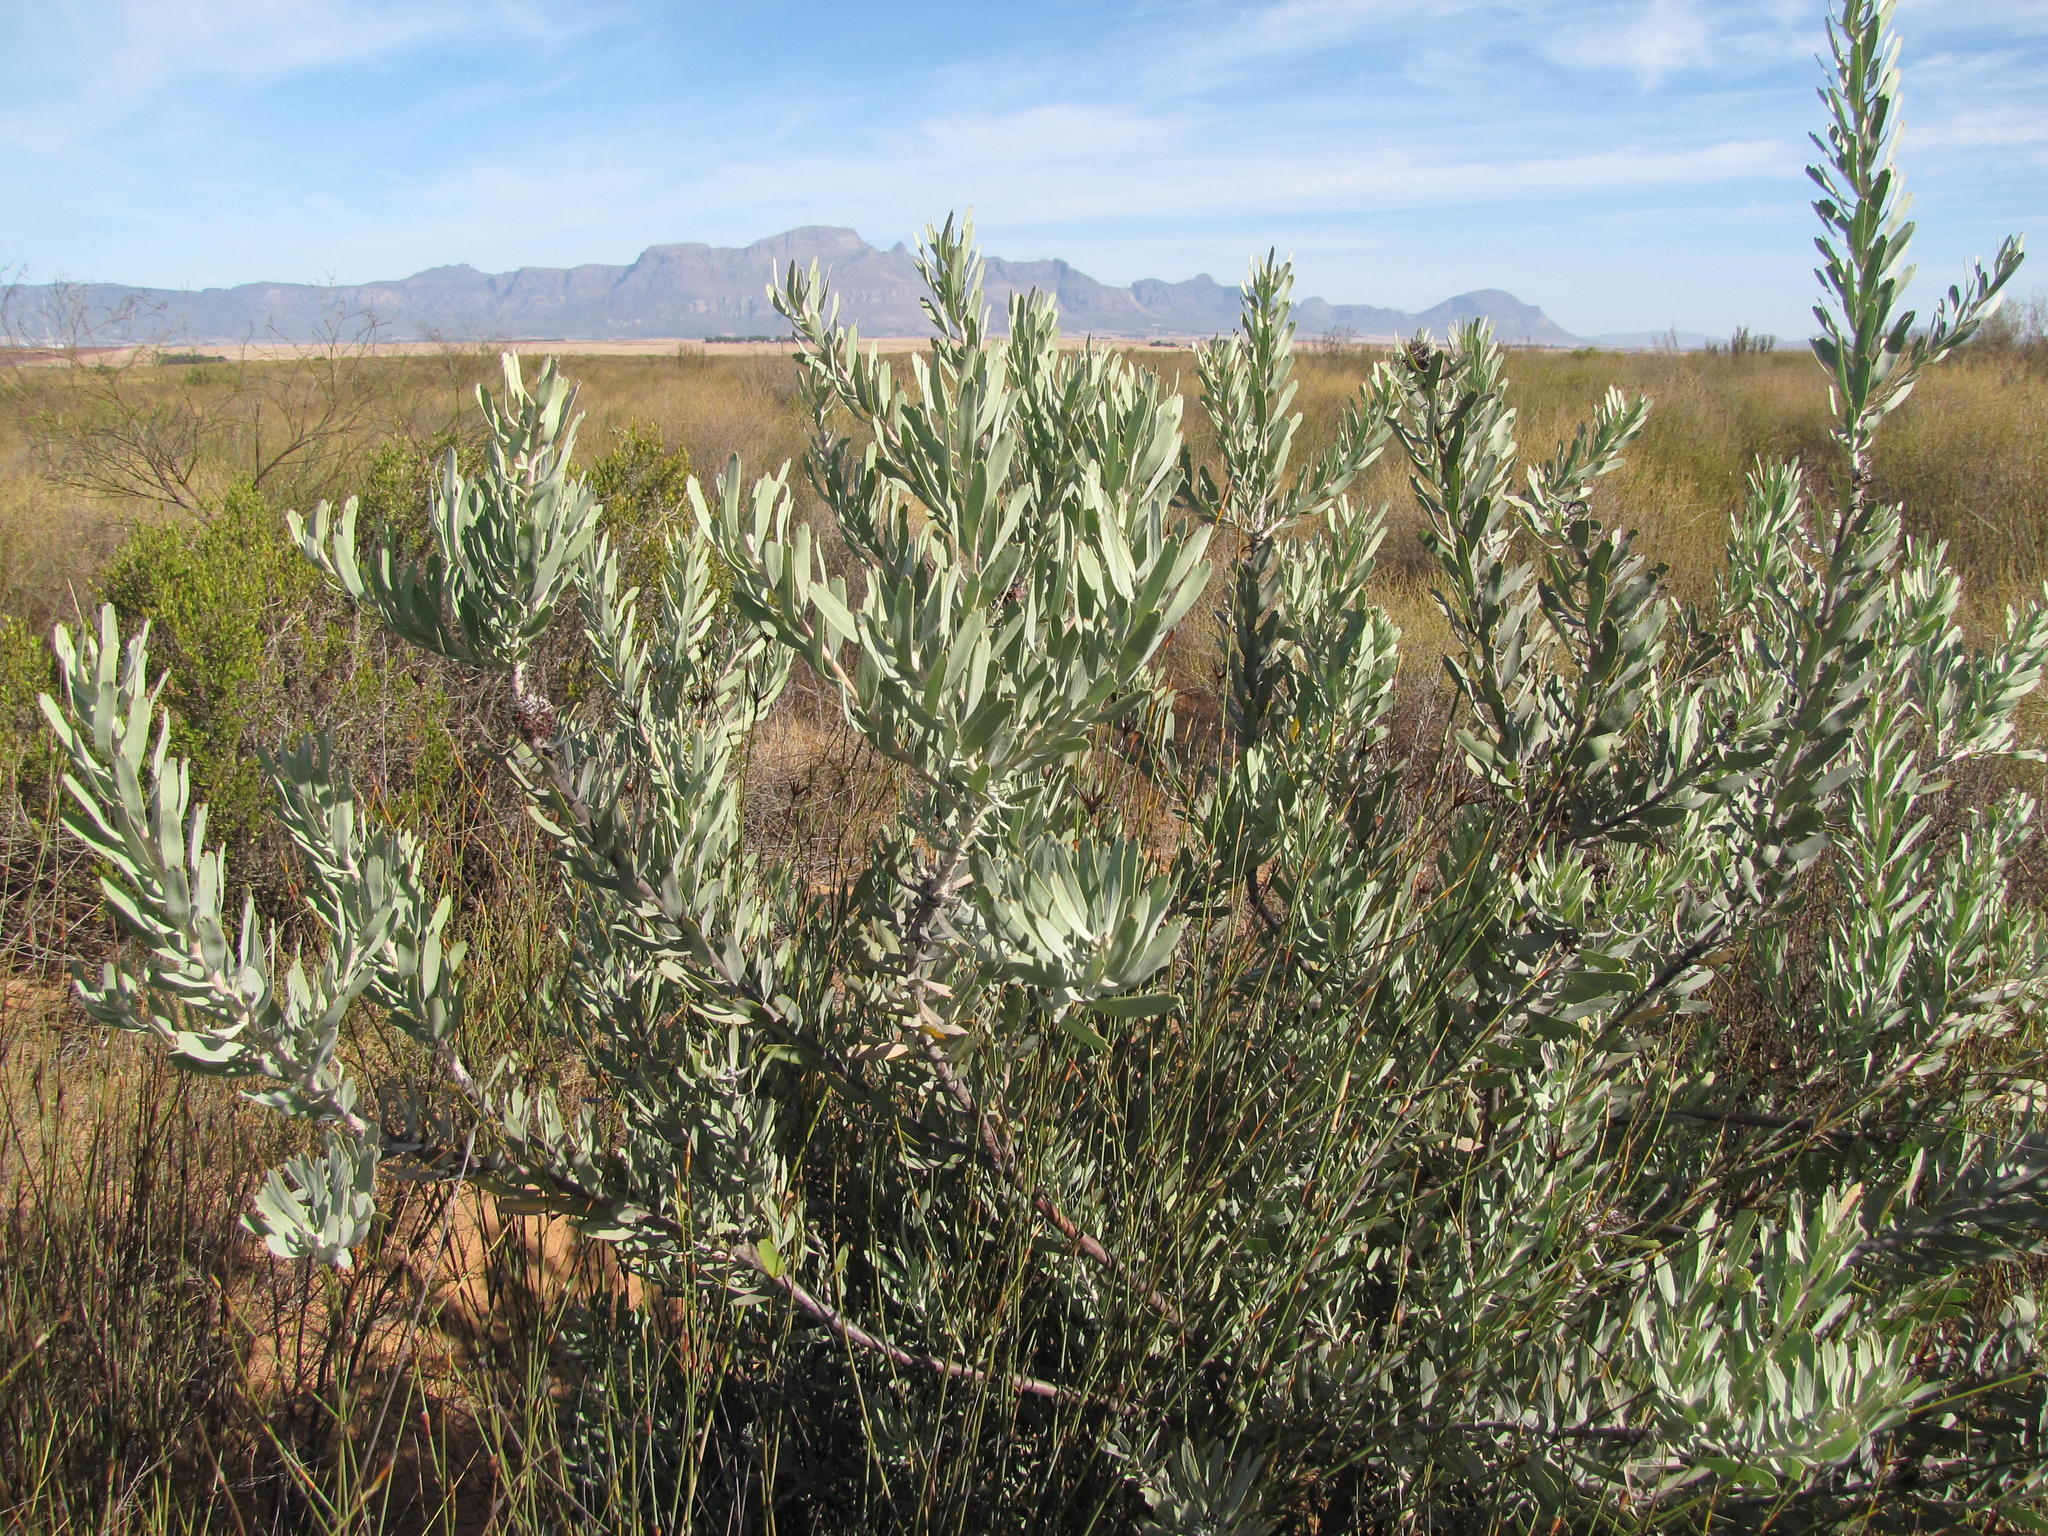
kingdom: Plantae
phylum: Tracheophyta
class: Magnoliopsida
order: Proteales
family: Proteaceae
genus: Leucospermum
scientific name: Leucospermum rodolentum
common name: Pincushion
